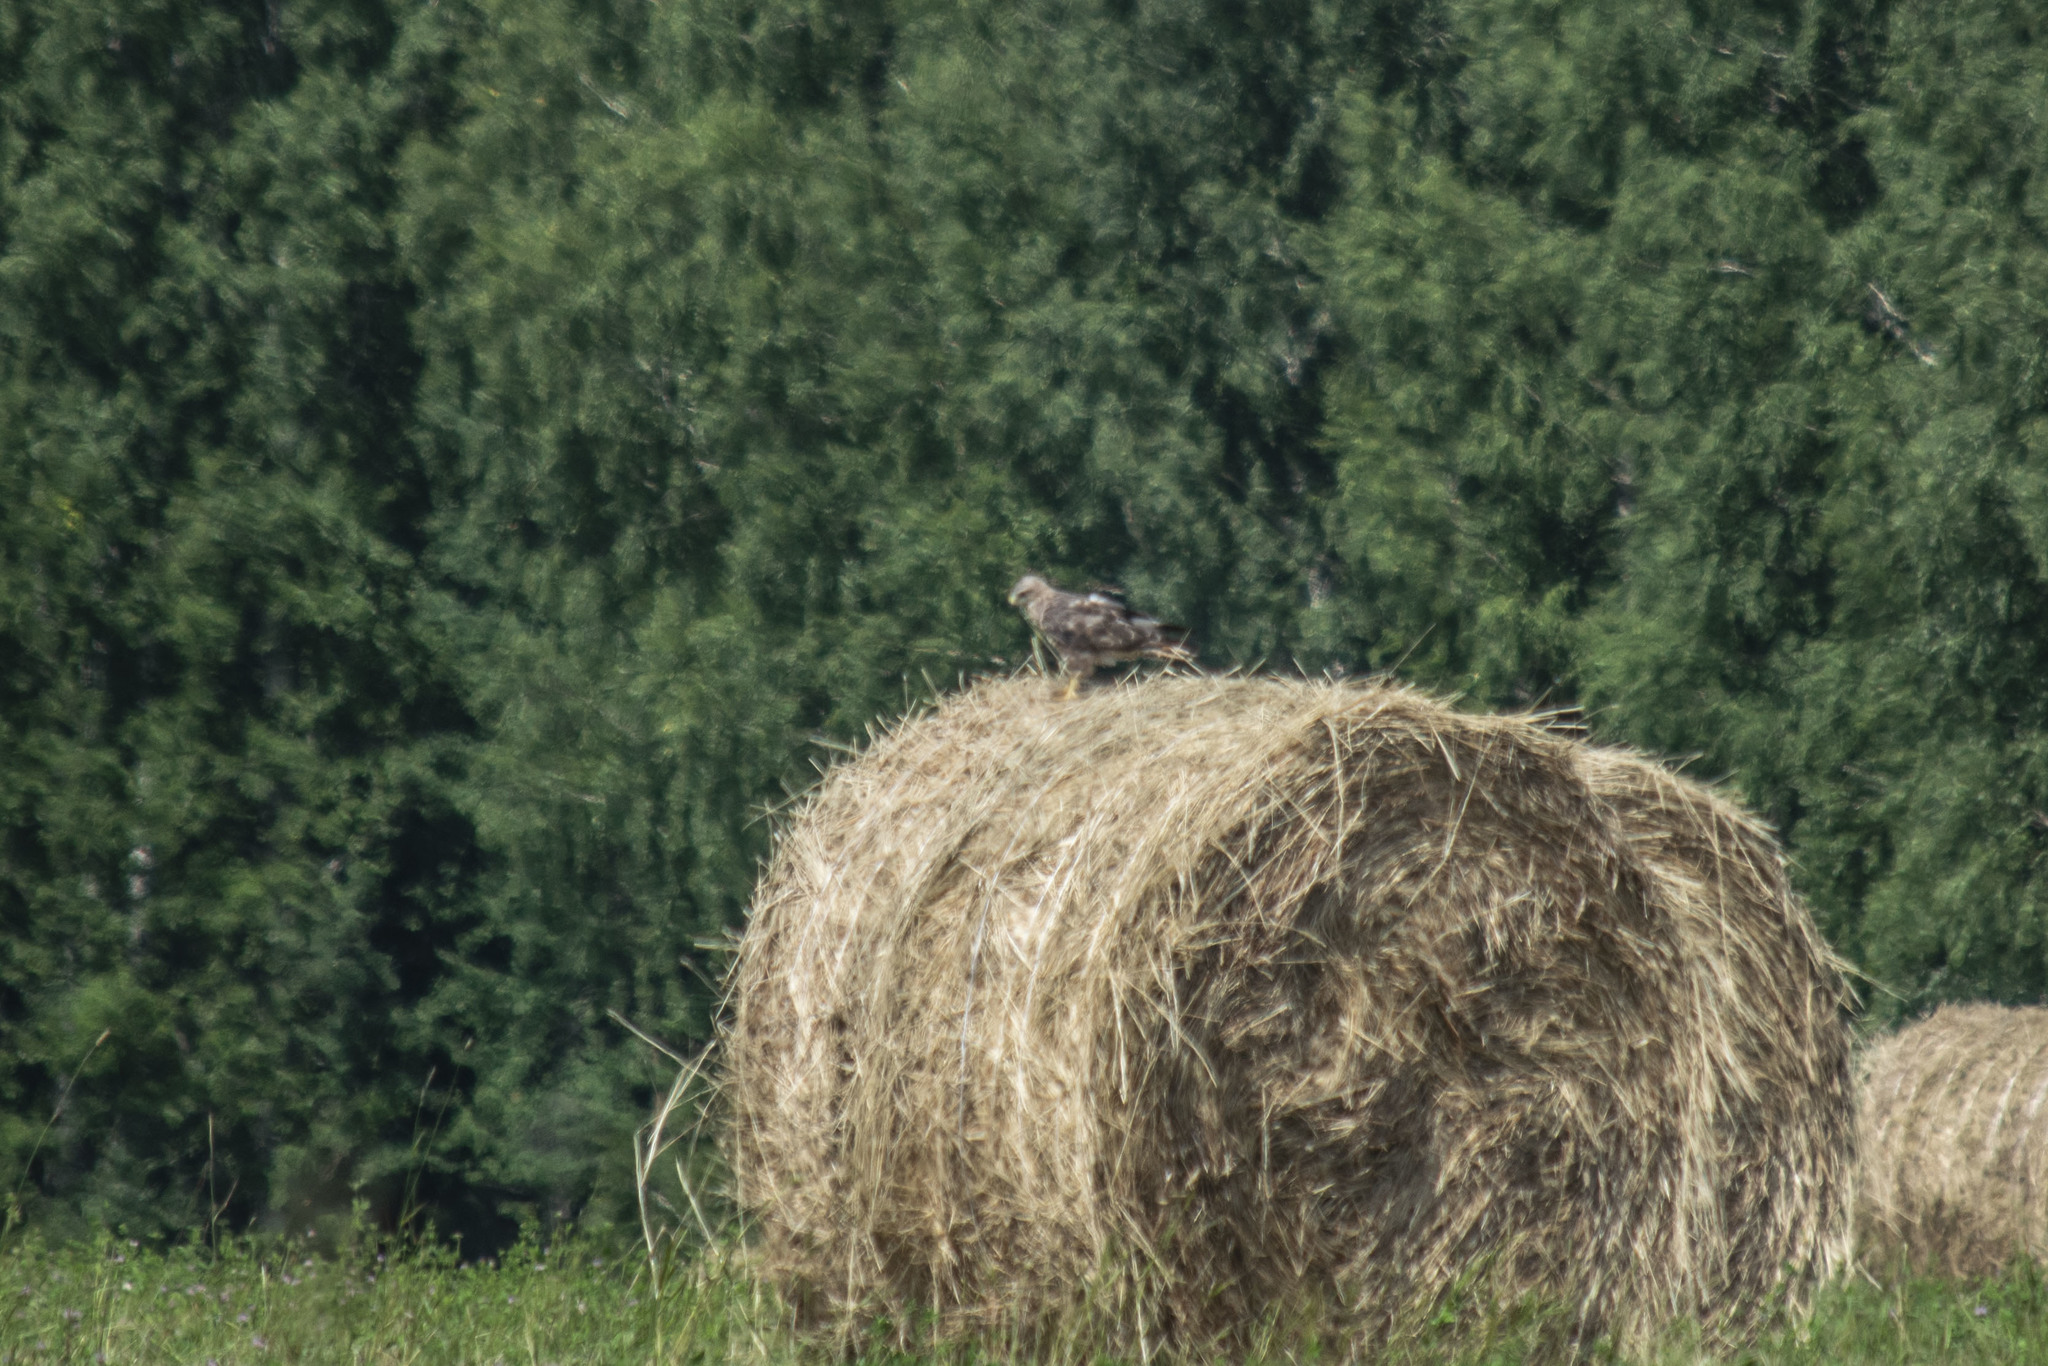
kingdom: Animalia
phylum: Chordata
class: Aves
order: Accipitriformes
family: Accipitridae
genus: Milvus
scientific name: Milvus migrans
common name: Black kite
